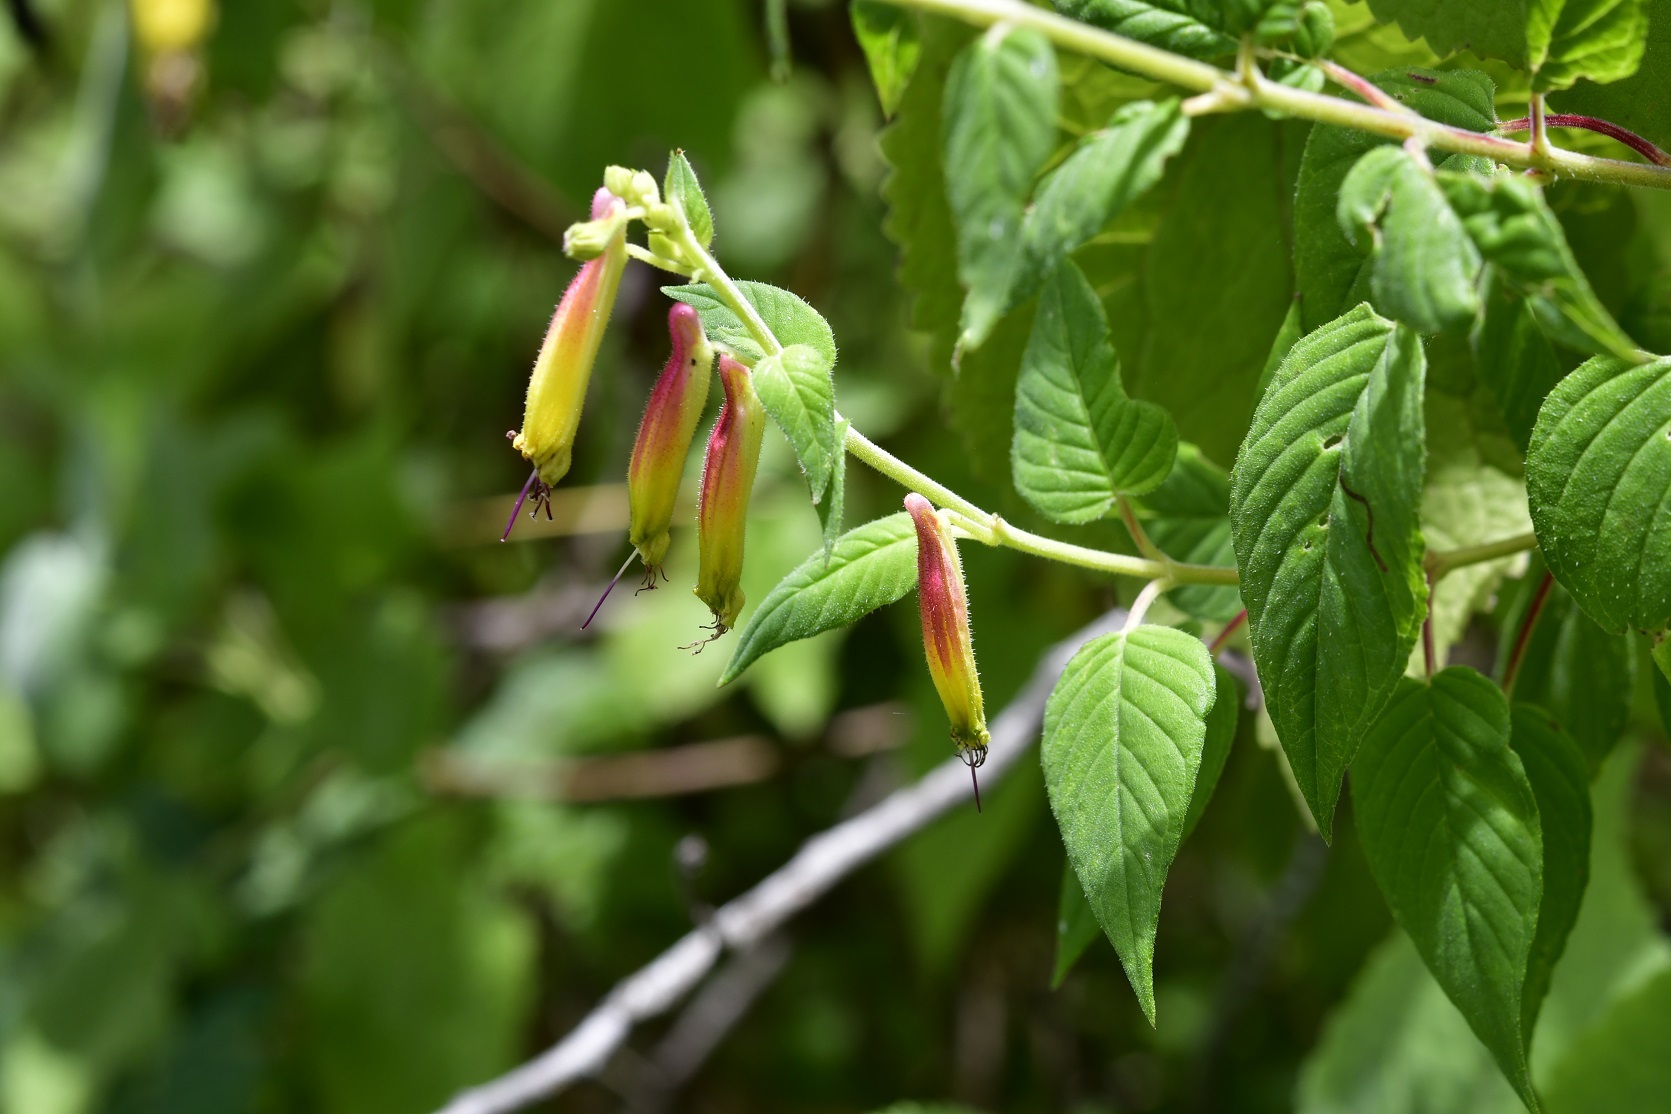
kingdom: Plantae
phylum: Tracheophyta
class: Magnoliopsida
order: Myrtales
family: Lythraceae
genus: Cuphea
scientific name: Cuphea cyanea
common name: Black-eyed cuphea
